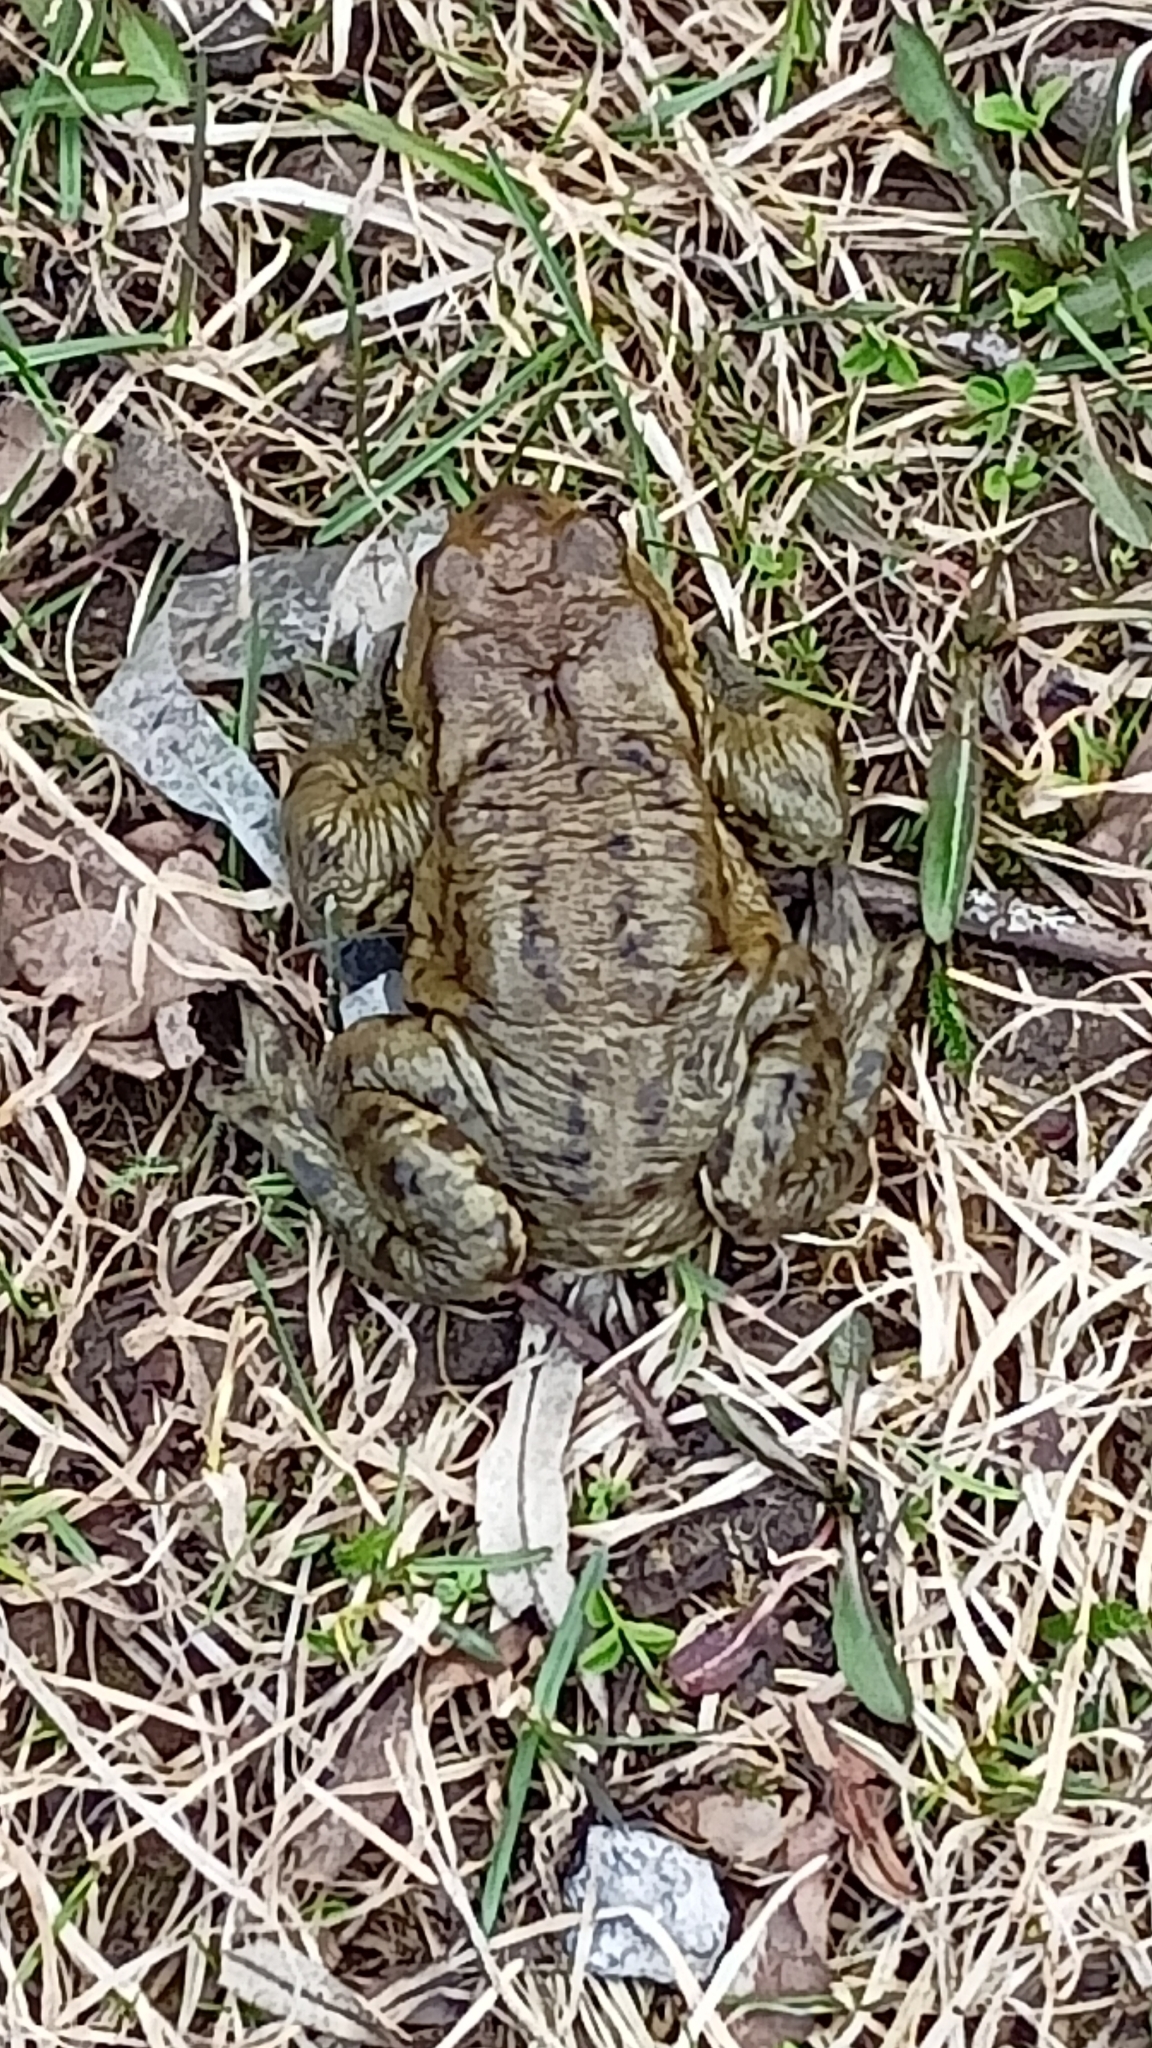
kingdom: Animalia
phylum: Chordata
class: Amphibia
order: Anura
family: Bufonidae
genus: Bufo
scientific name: Bufo bufo
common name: Common toad
